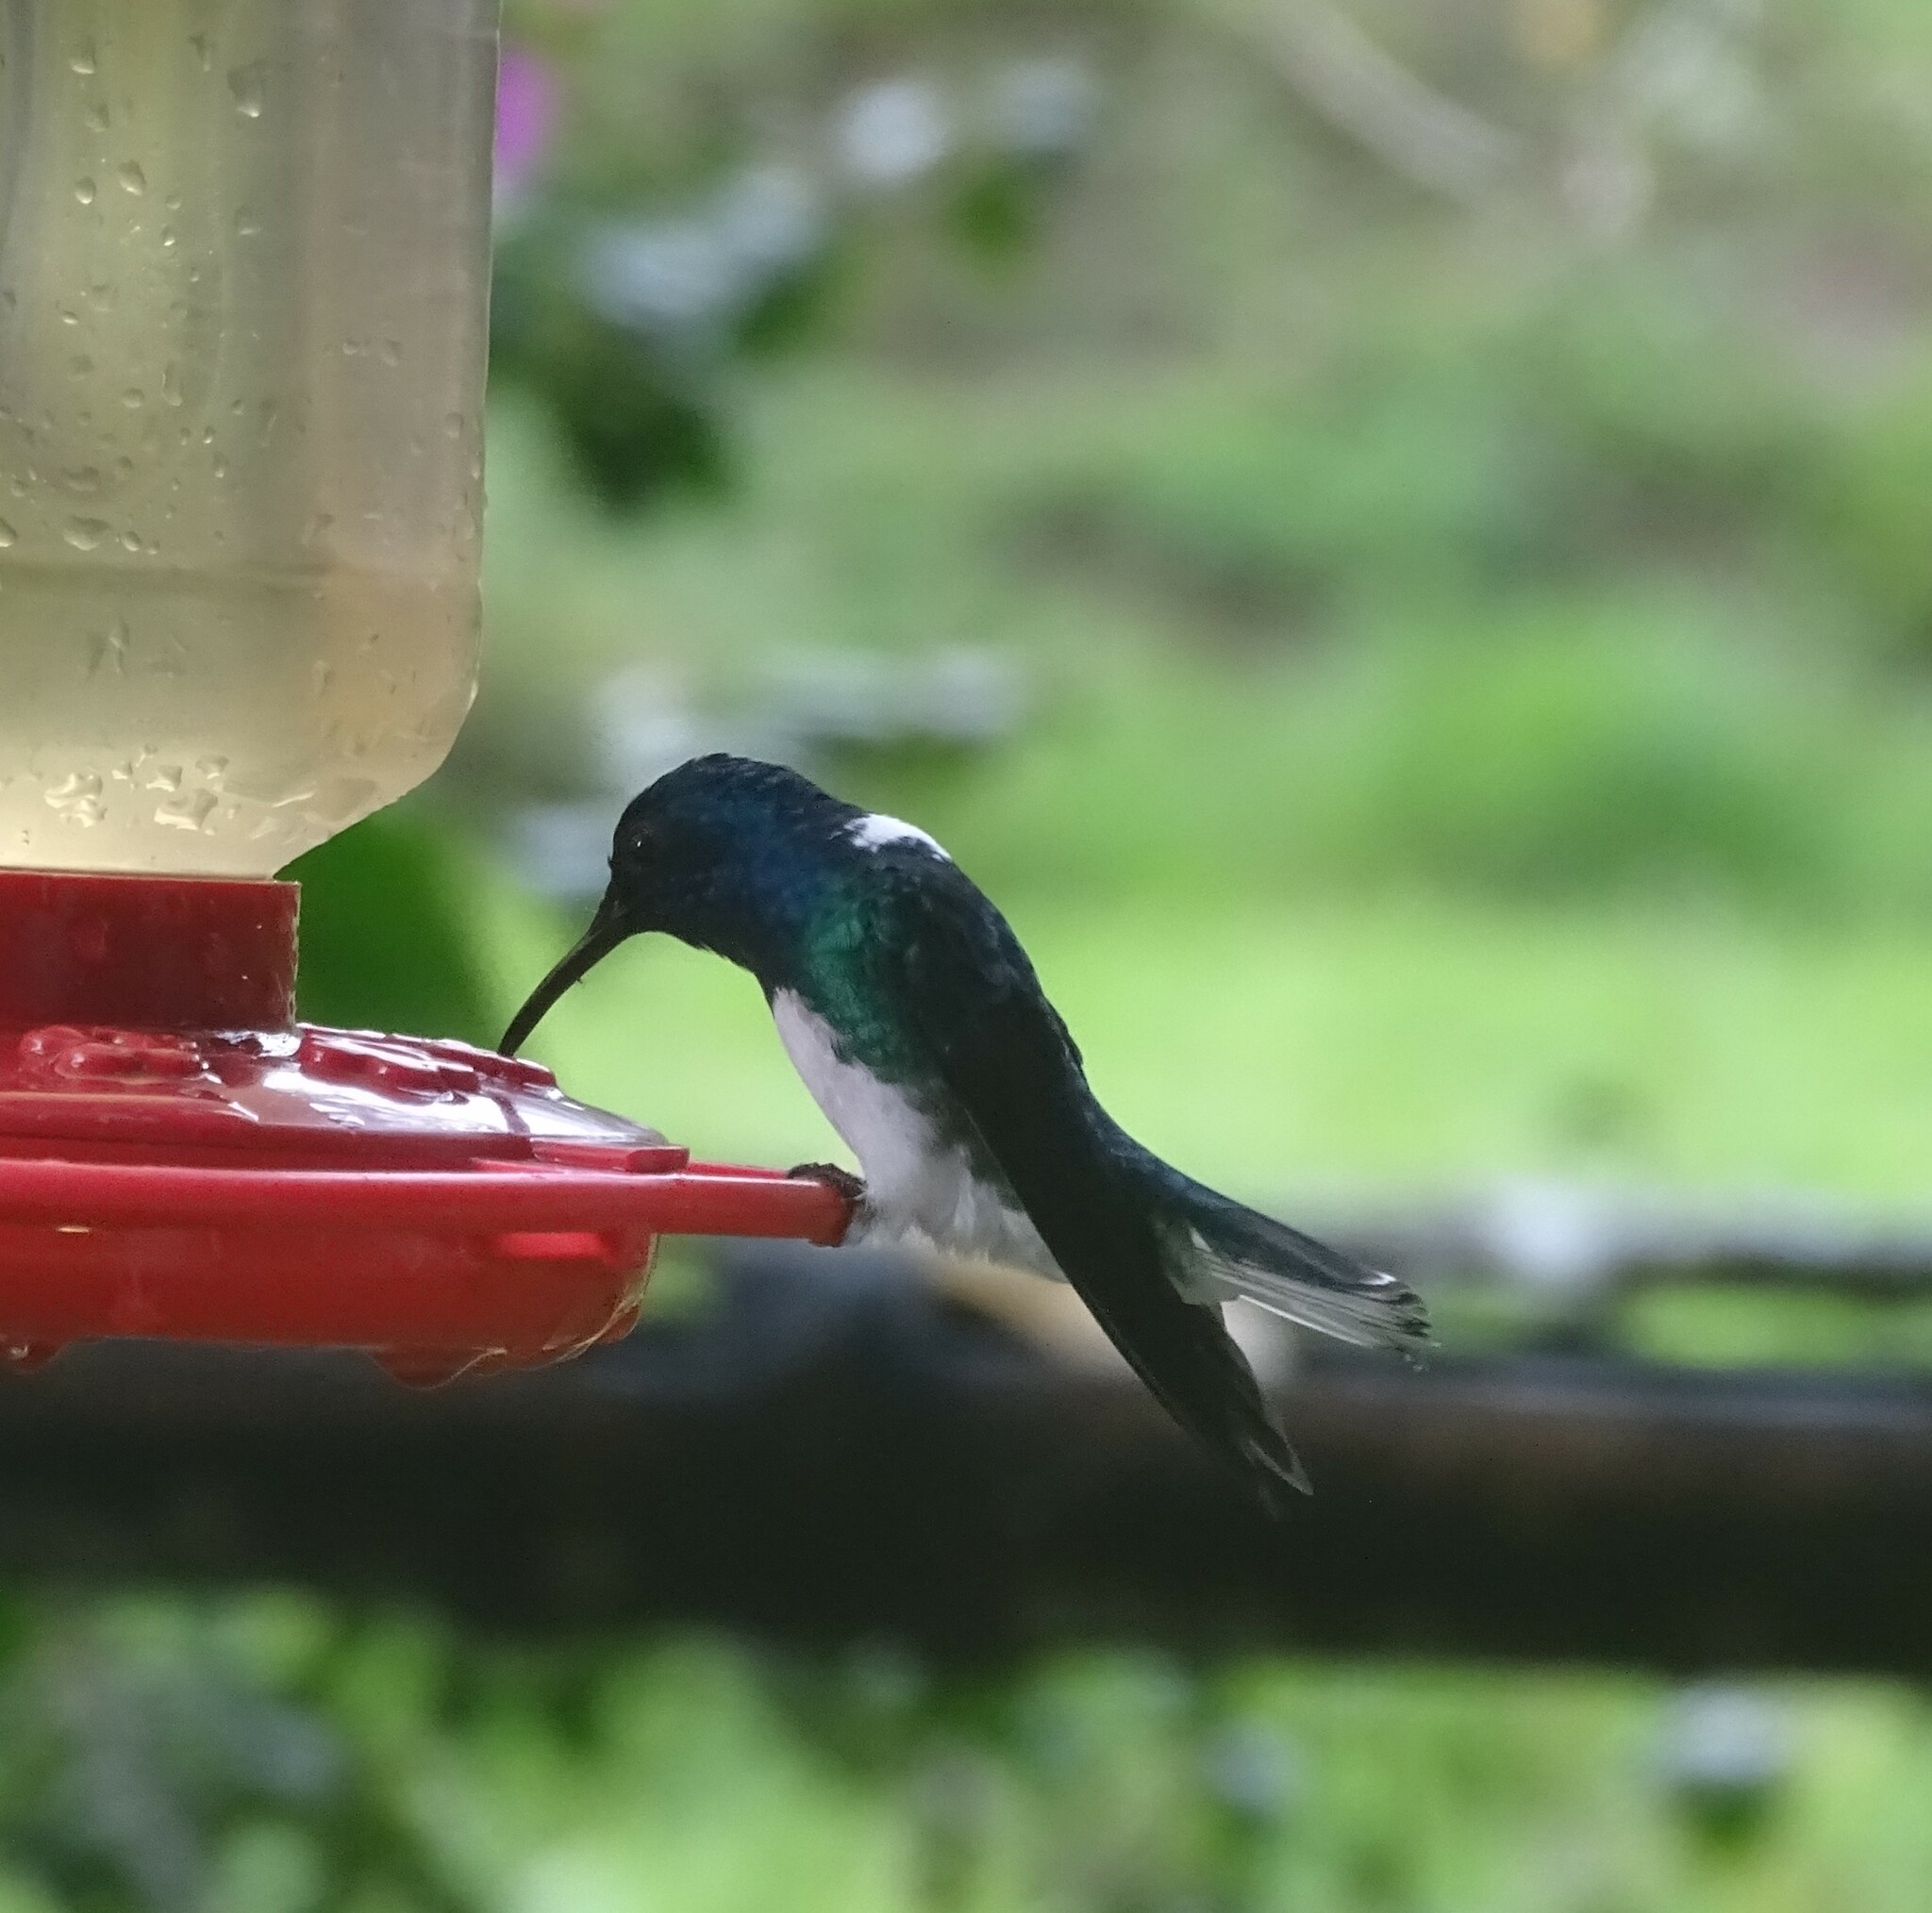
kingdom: Animalia
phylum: Chordata
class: Aves
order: Apodiformes
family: Trochilidae
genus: Florisuga
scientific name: Florisuga mellivora
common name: White-necked jacobin
